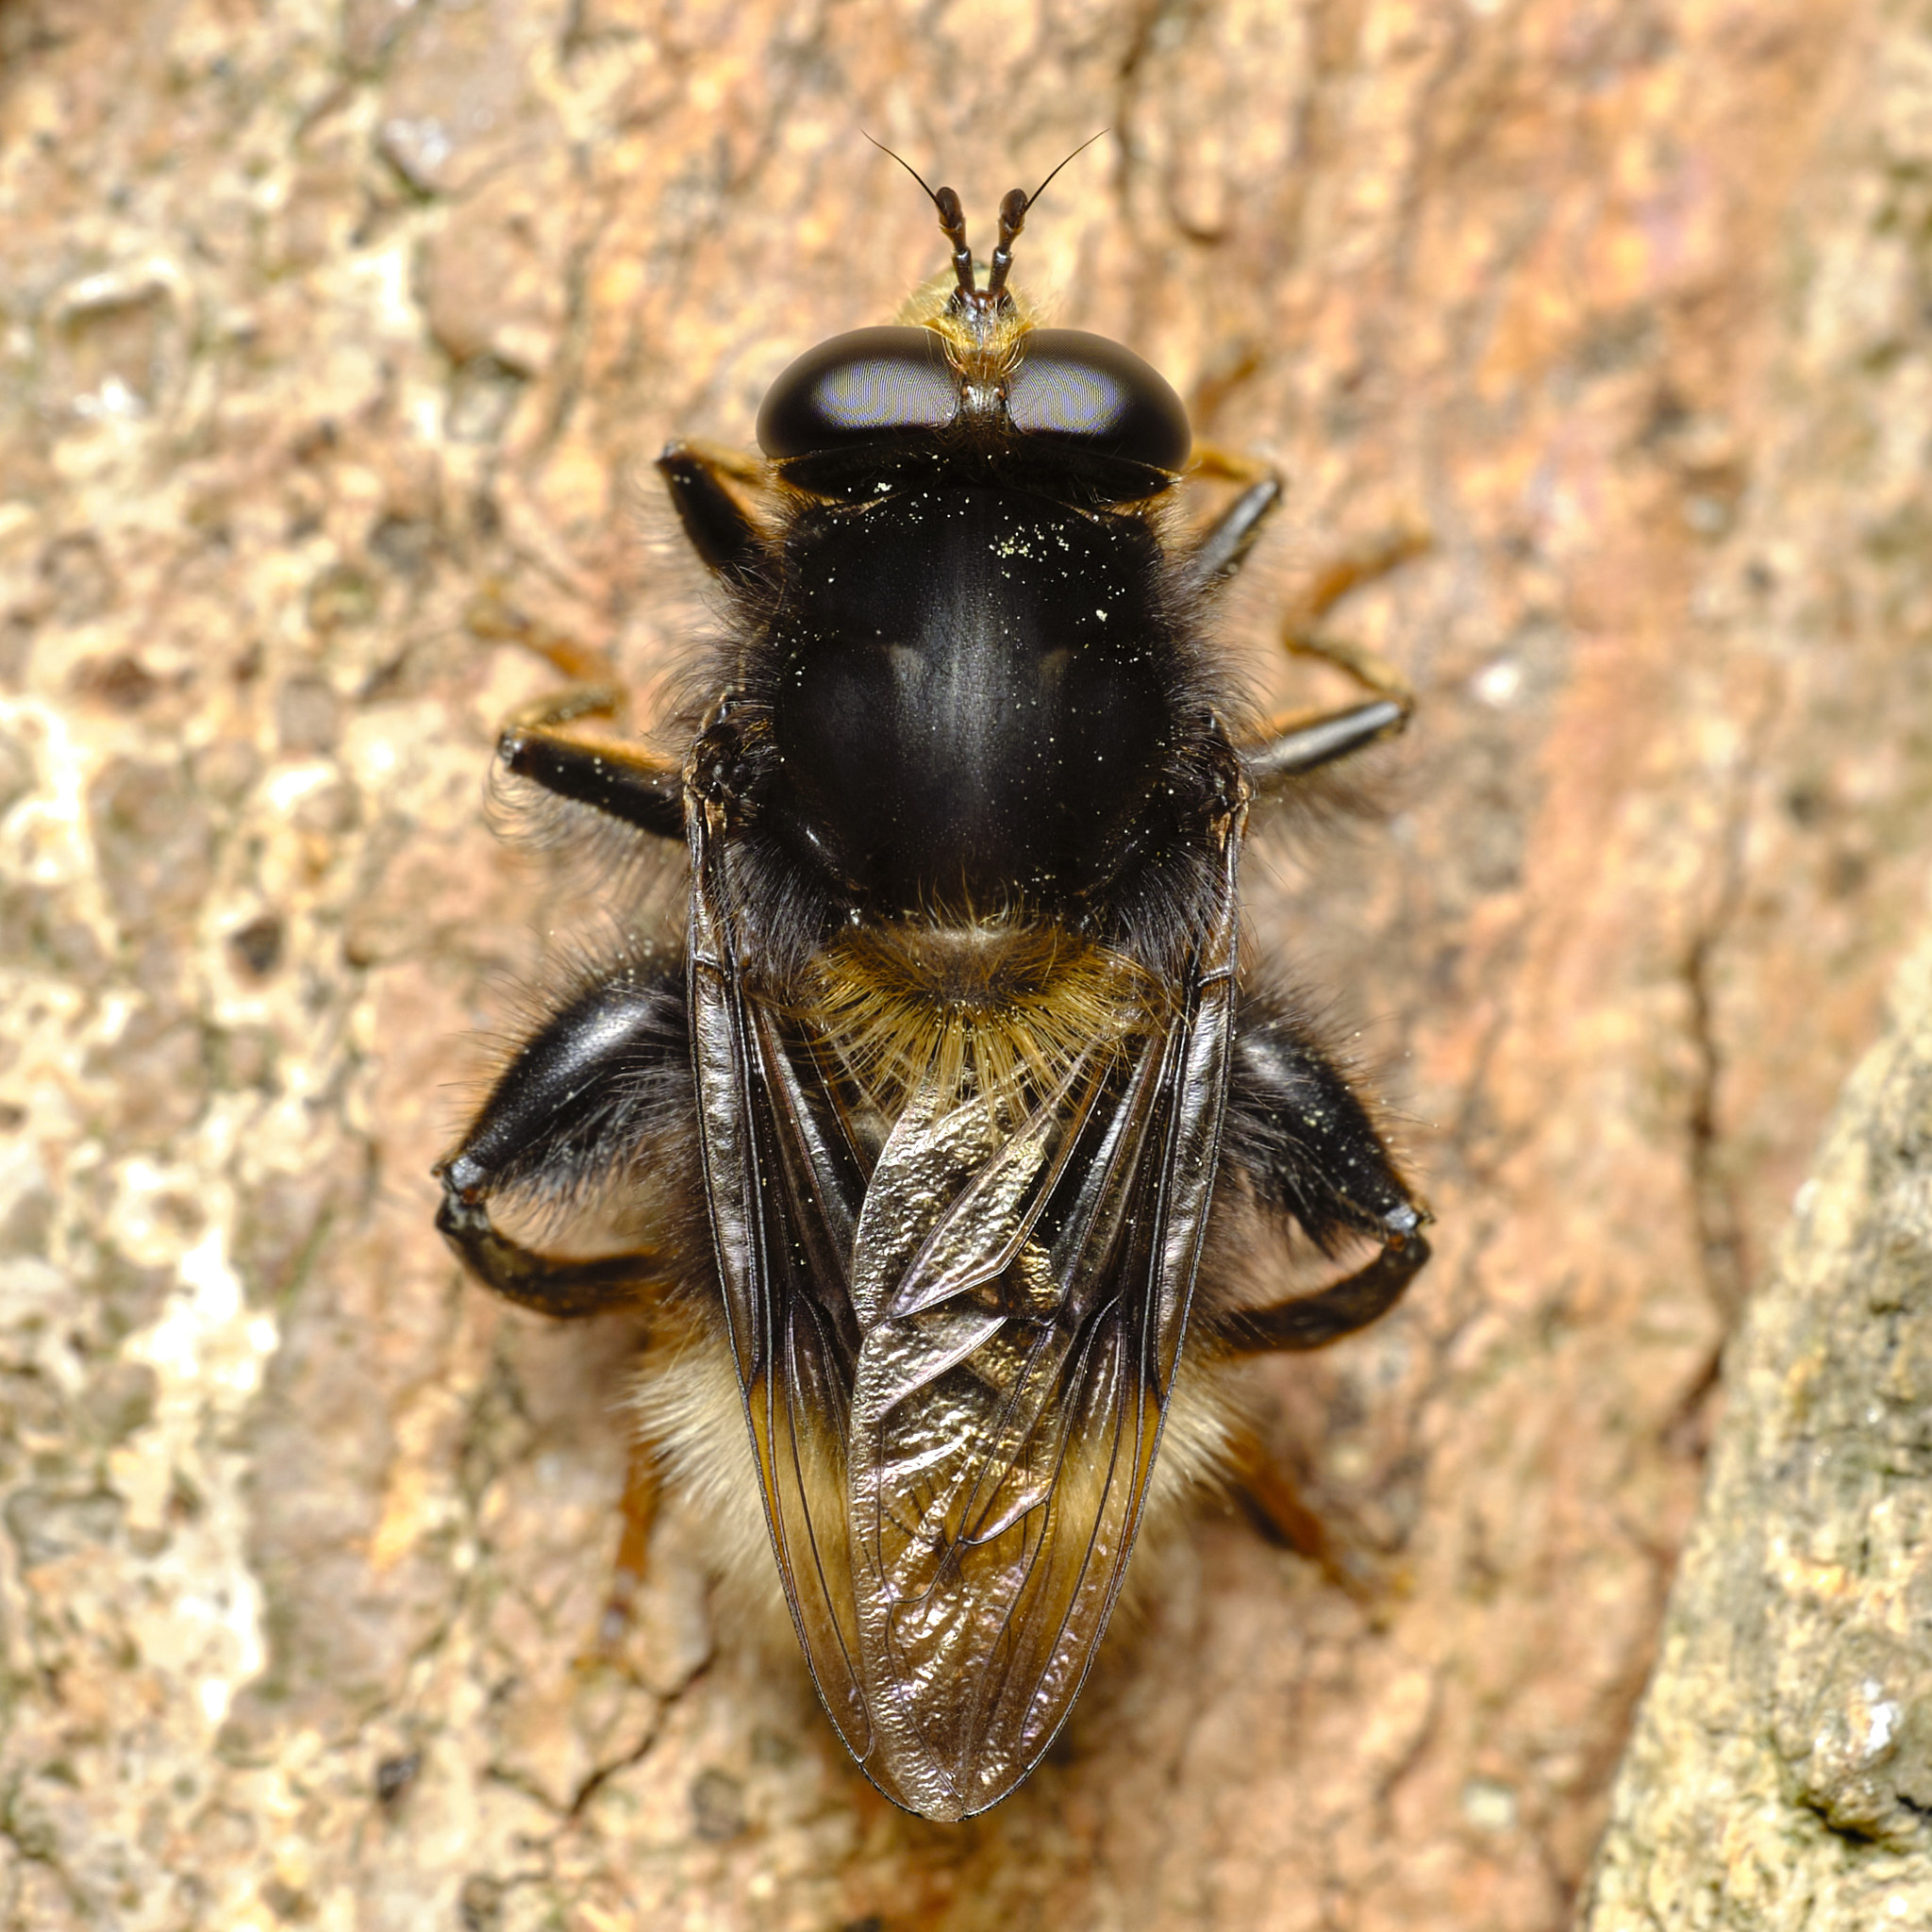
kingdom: Animalia
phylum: Arthropoda
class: Insecta
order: Diptera
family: Syrphidae
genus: Criorhina
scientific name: Criorhina ranunculi
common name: Large bear hoverfly
